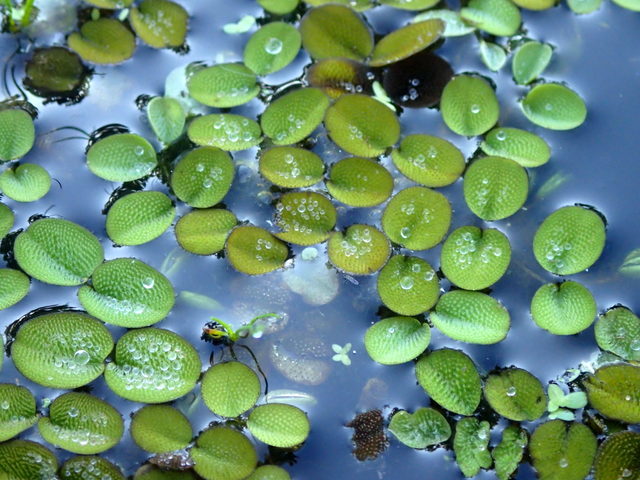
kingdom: Plantae
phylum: Tracheophyta
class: Polypodiopsida
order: Salviniales
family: Salviniaceae
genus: Salvinia
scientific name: Salvinia minima
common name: Water spangles
